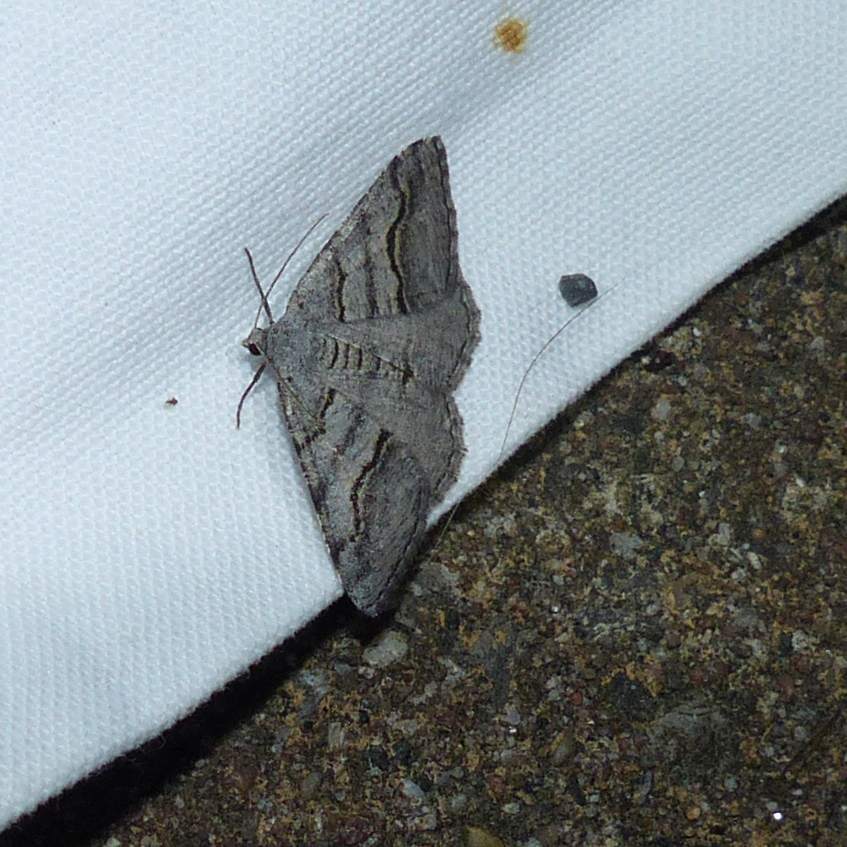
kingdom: Animalia
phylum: Arthropoda
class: Insecta
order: Lepidoptera
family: Geometridae
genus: Digrammia
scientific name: Digrammia continuata
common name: Curve-lined angle
